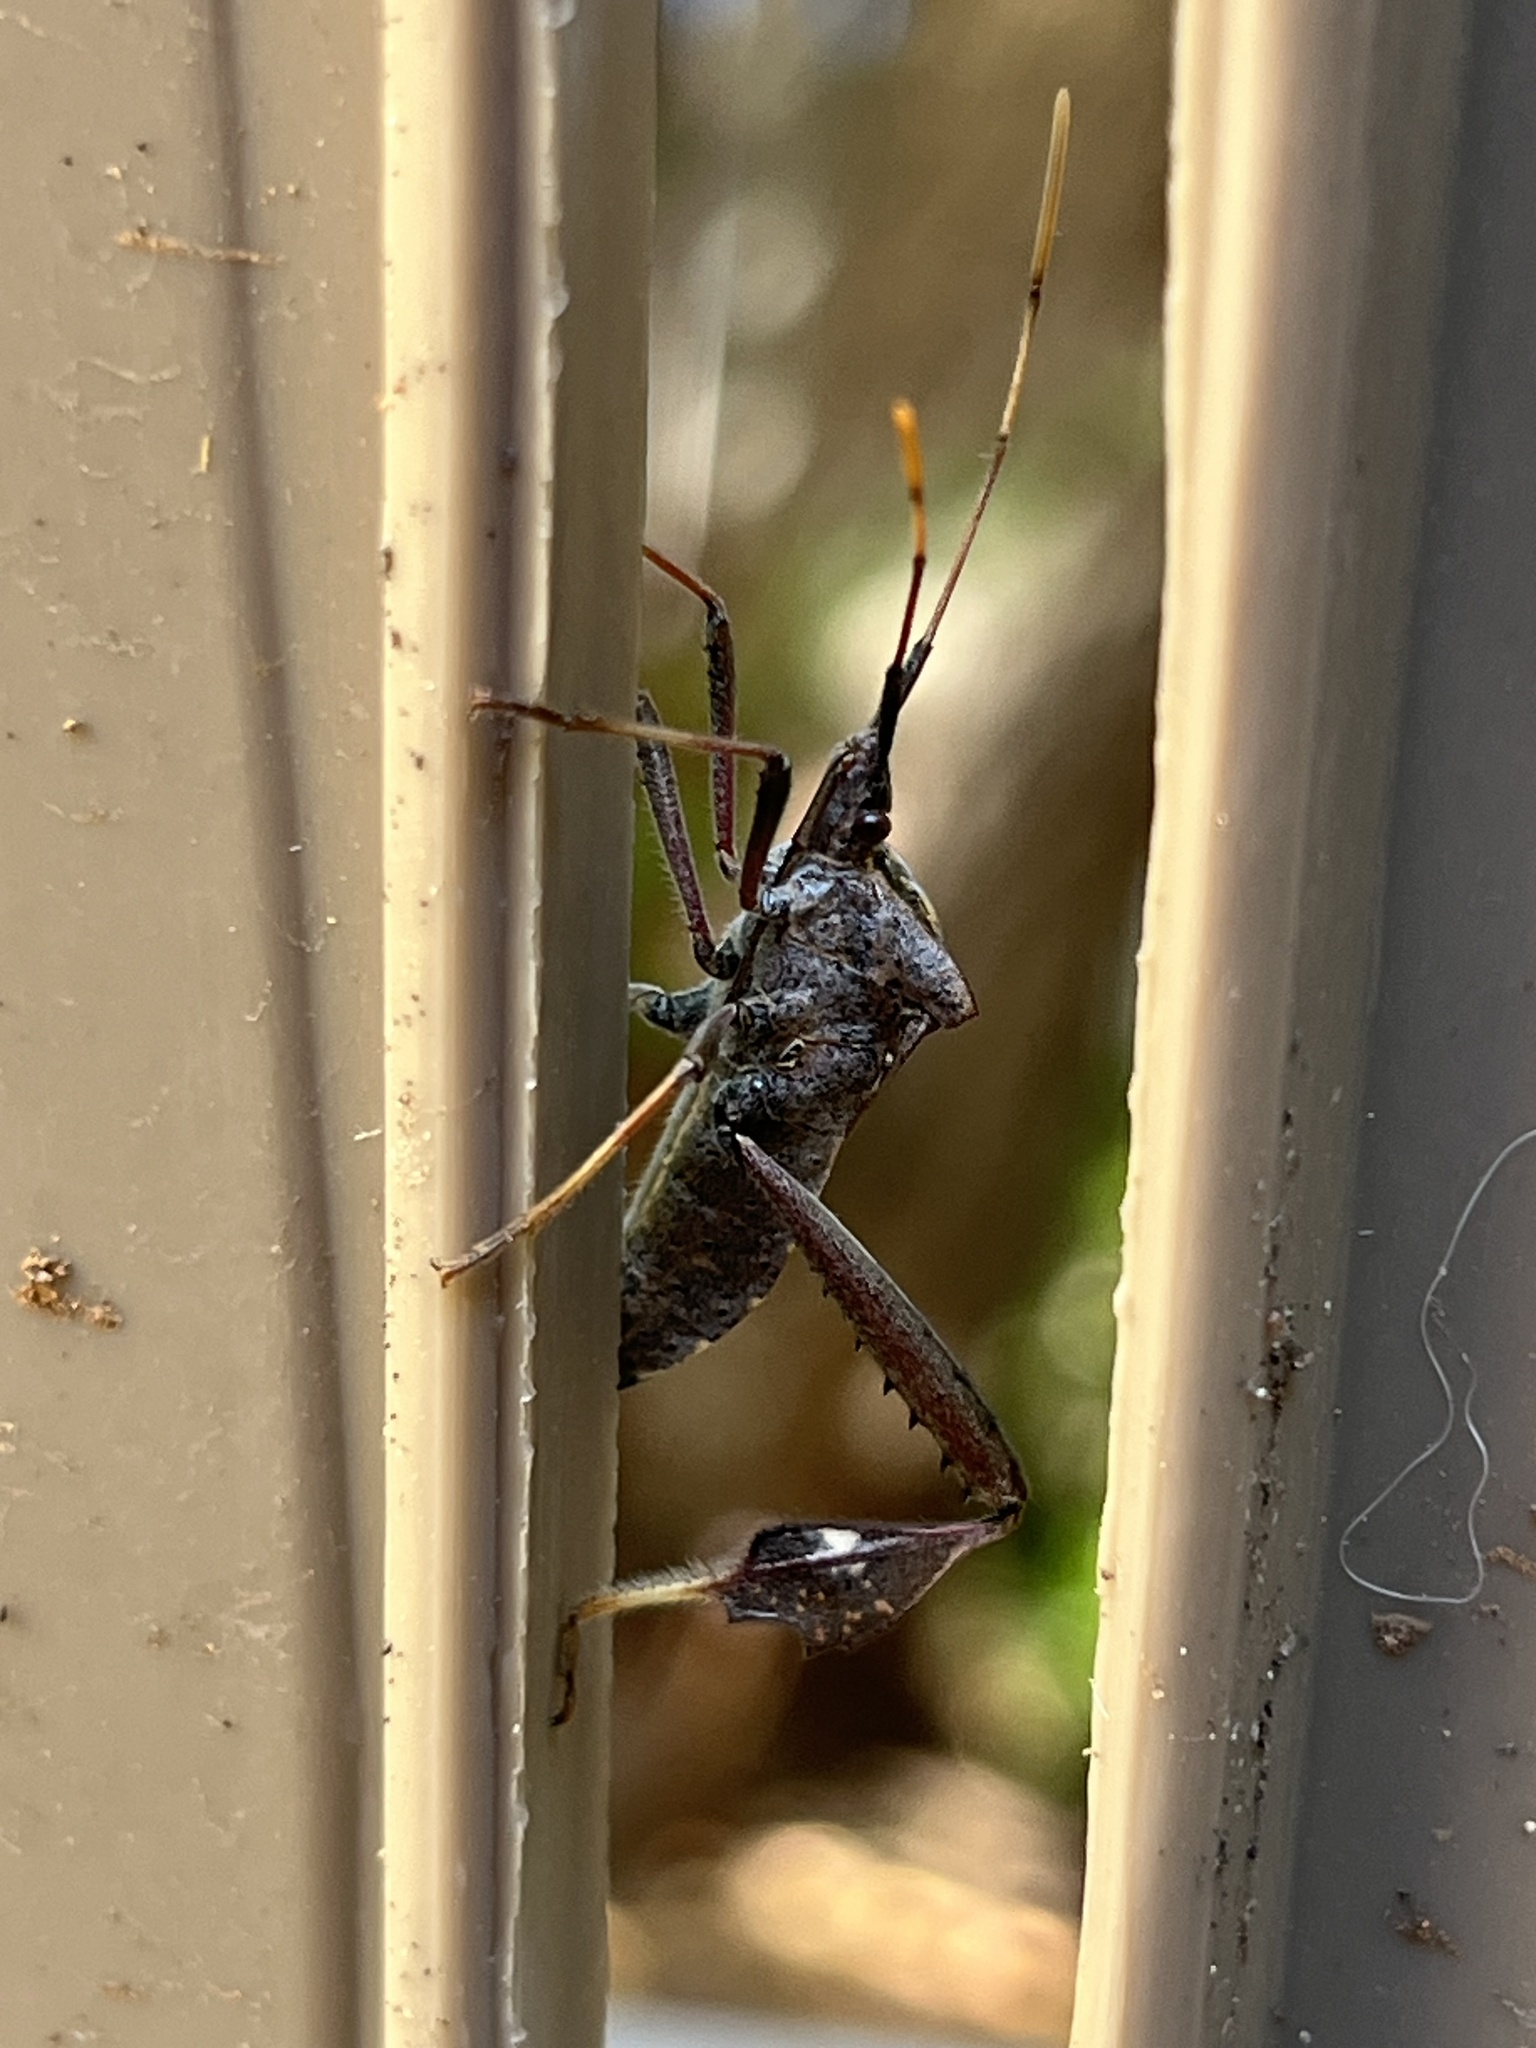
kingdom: Animalia
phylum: Arthropoda
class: Insecta
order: Hemiptera
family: Coreidae
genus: Leptoglossus
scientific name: Leptoglossus zonatus
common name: Large-legged bug
